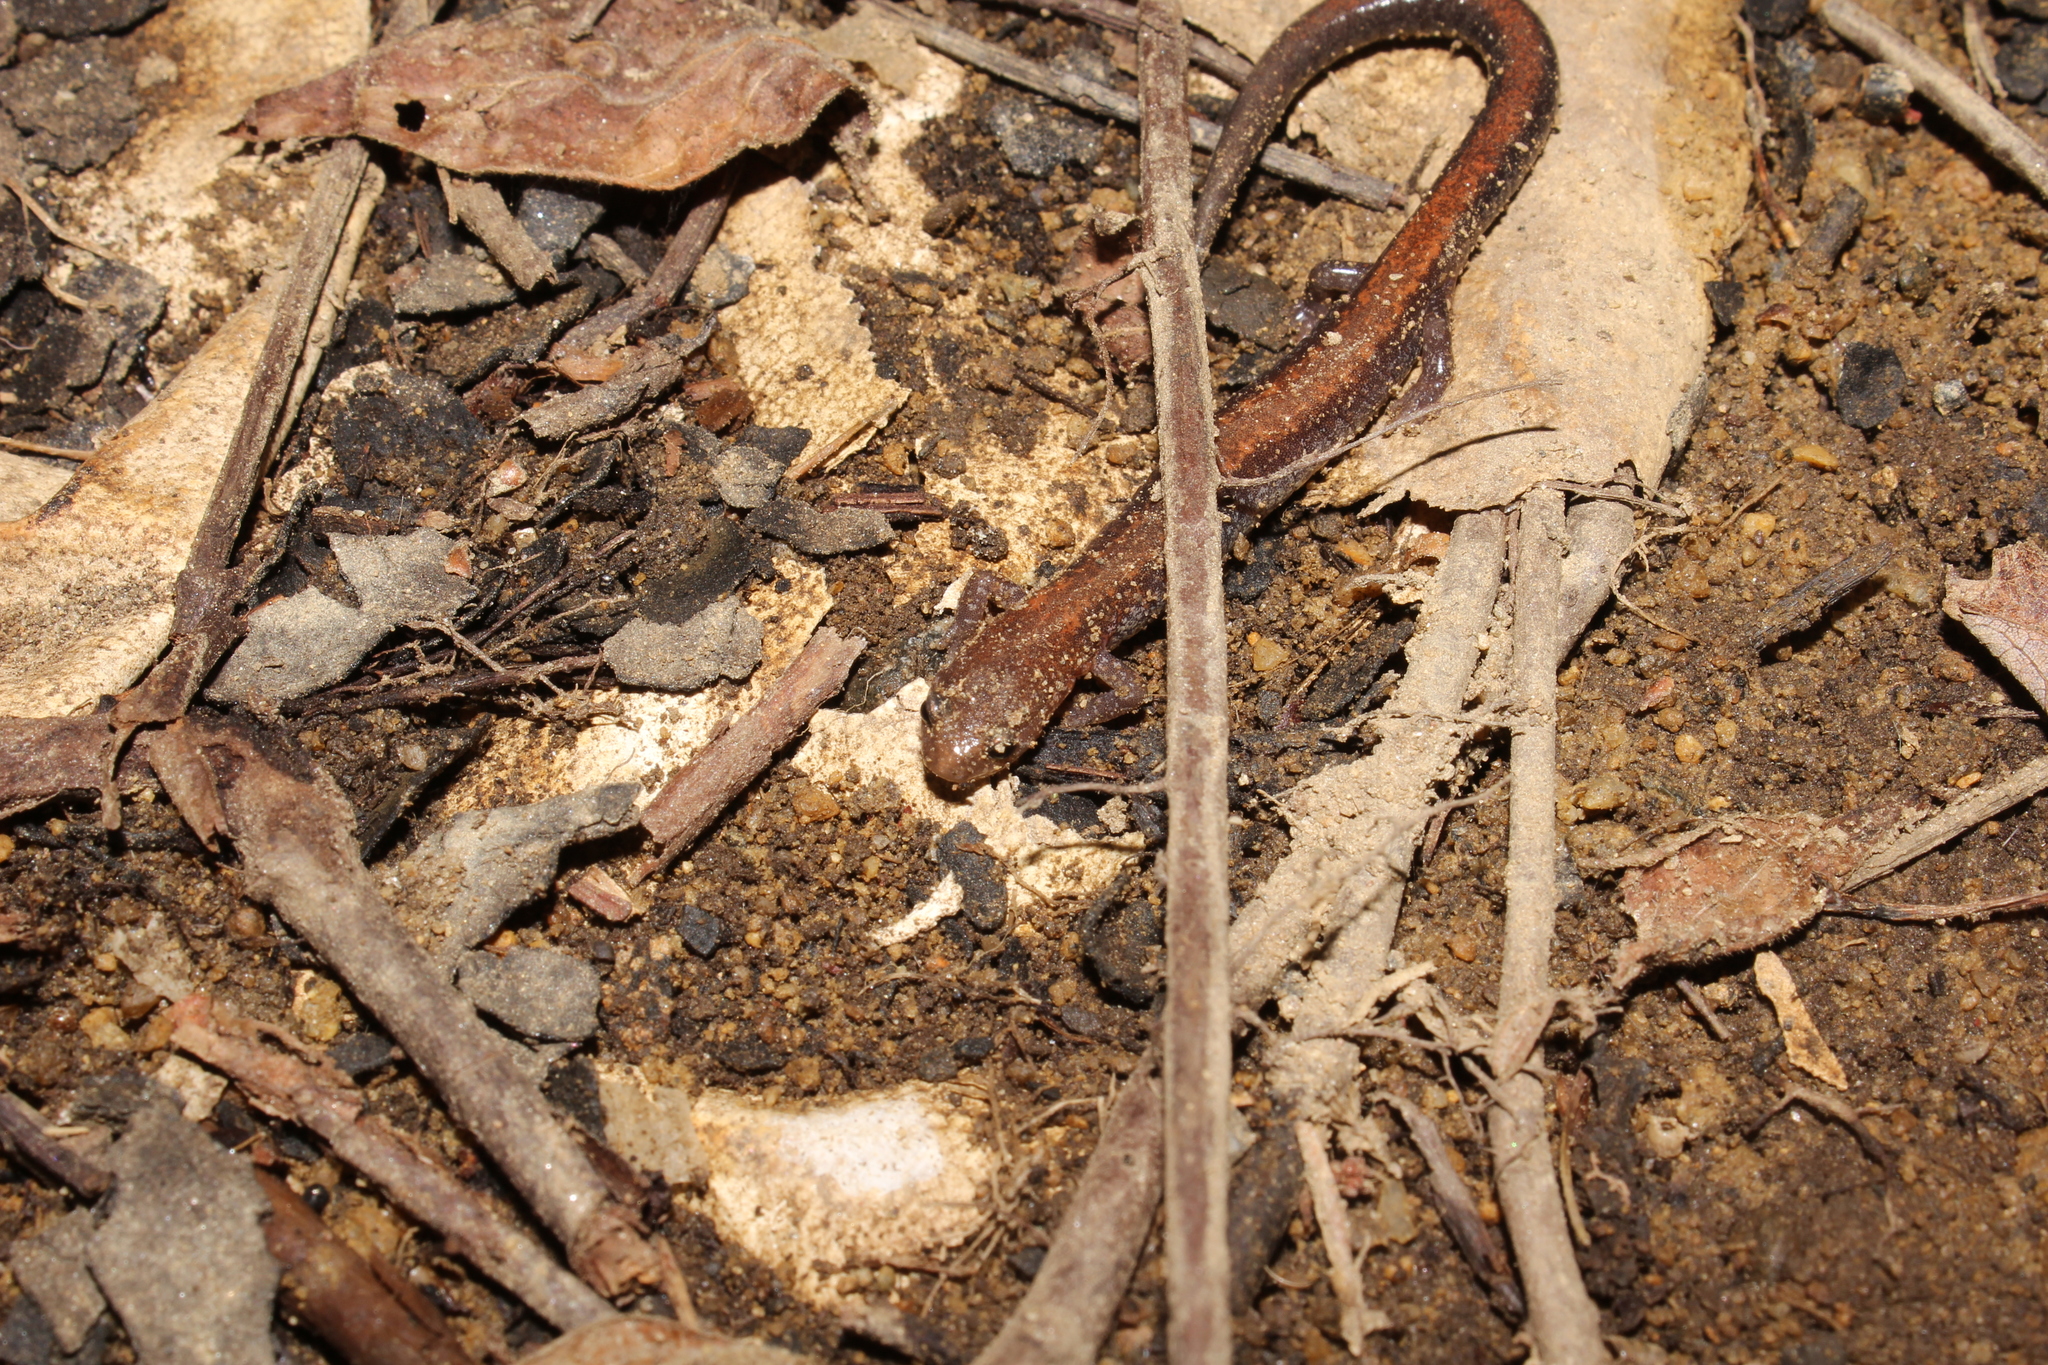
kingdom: Animalia
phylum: Chordata
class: Amphibia
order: Caudata
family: Plethodontidae
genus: Plethodon
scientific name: Plethodon cinereus
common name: Redback salamander
